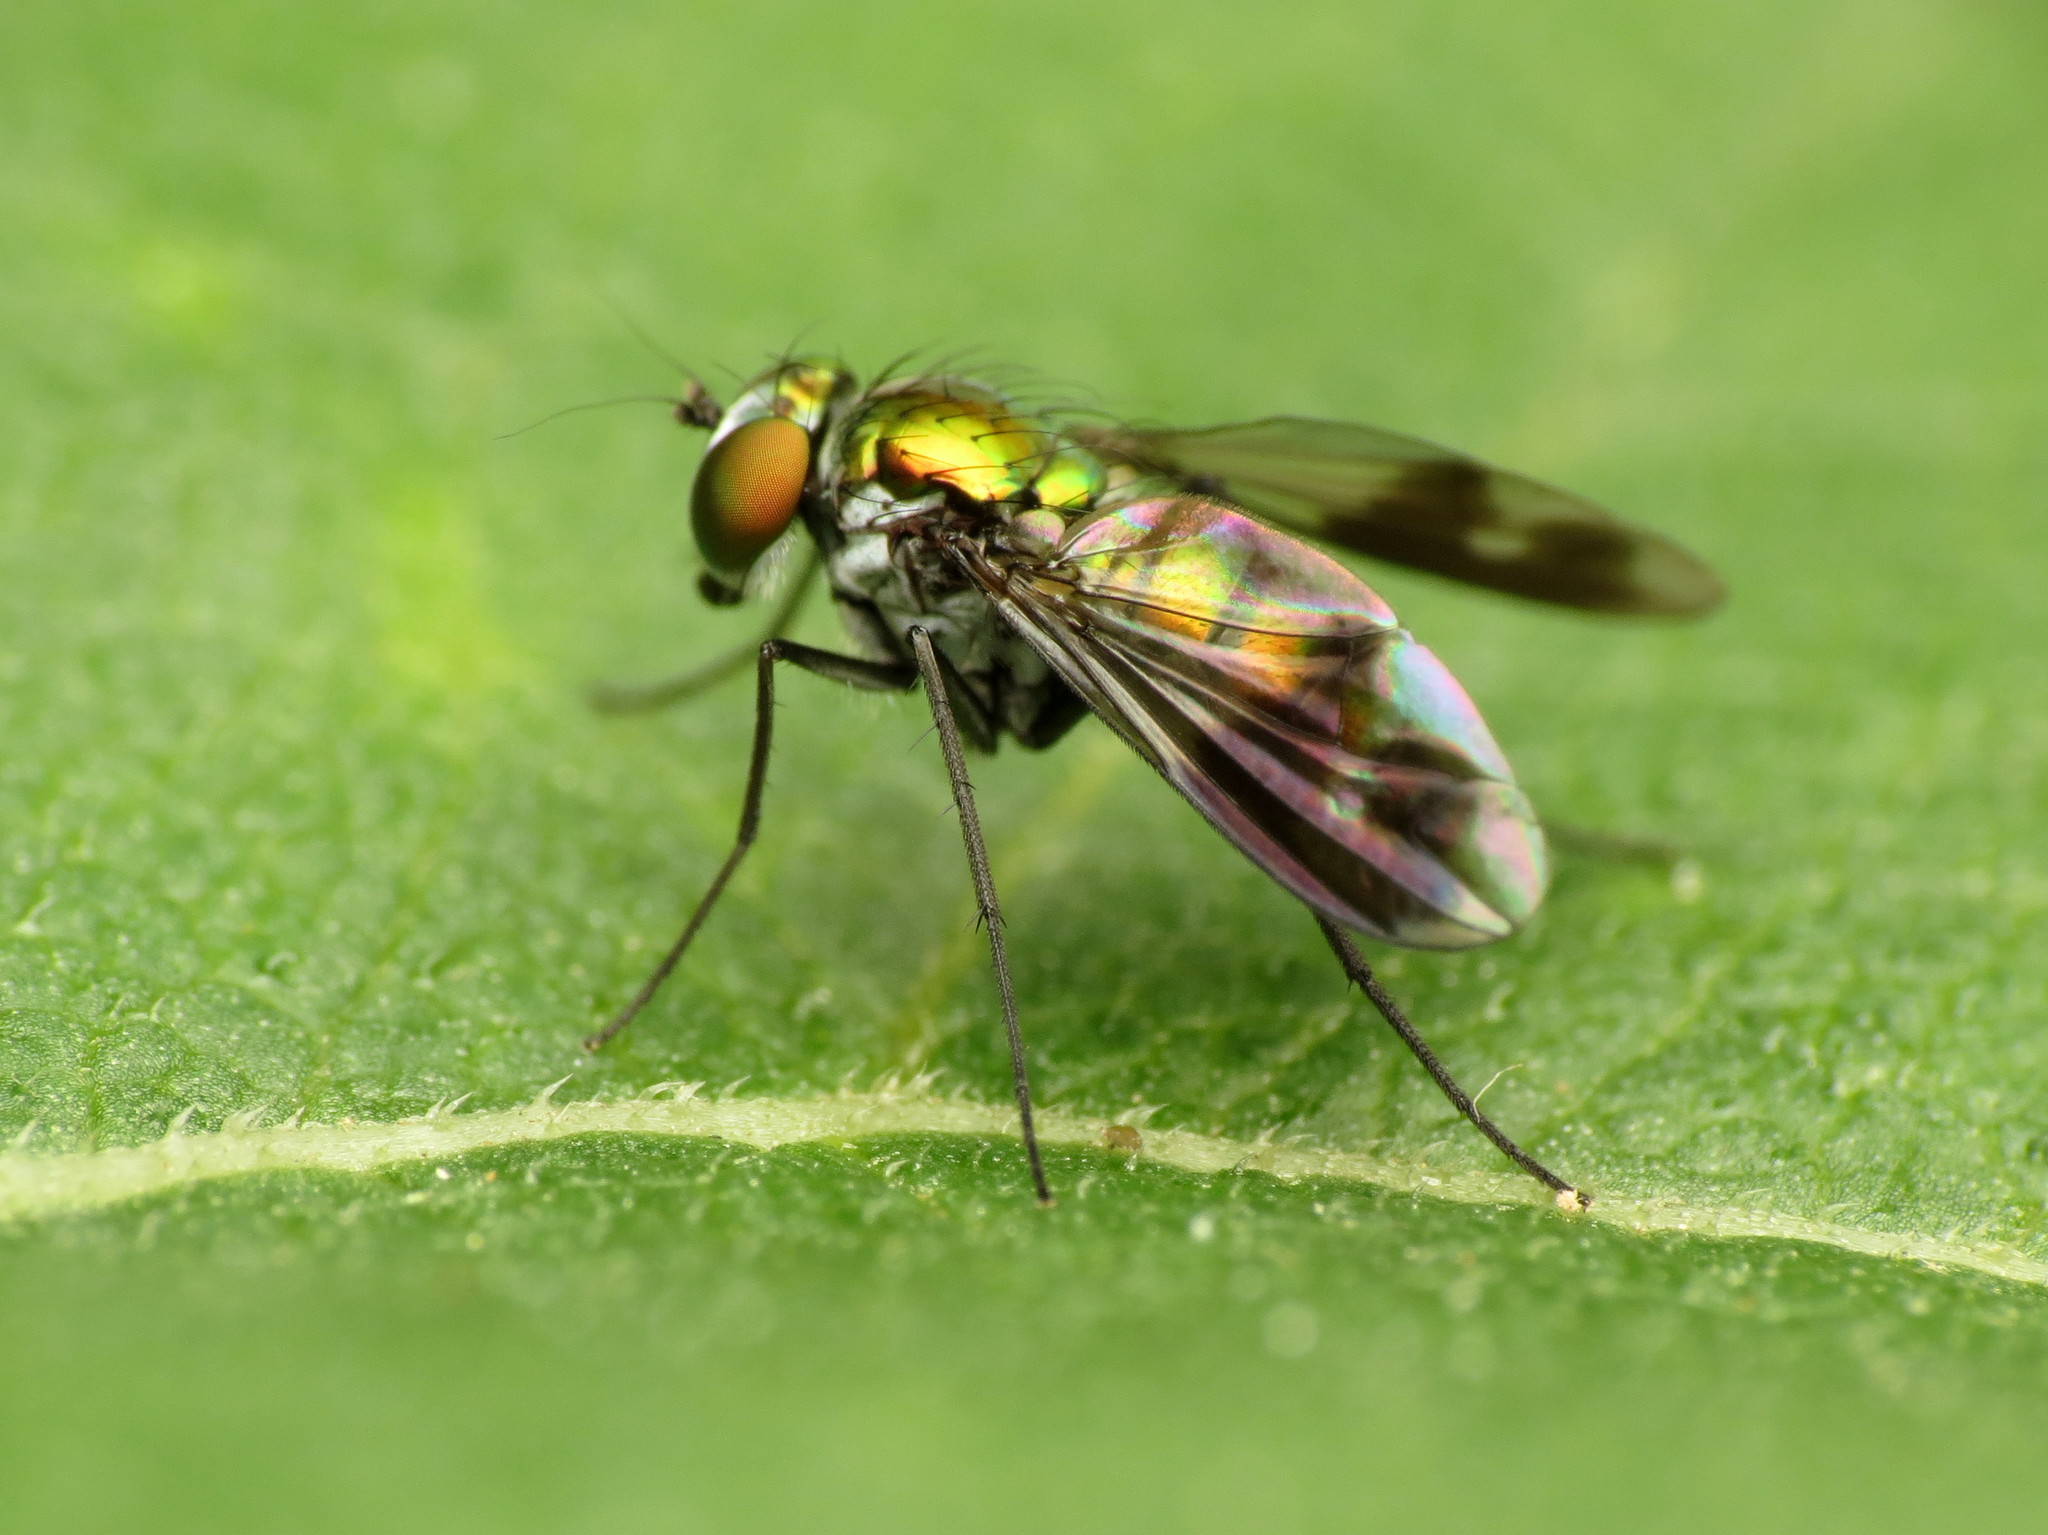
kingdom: Animalia
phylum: Arthropoda
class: Insecta
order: Diptera
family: Dolichopodidae
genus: Condylostylus
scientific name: Condylostylus patibulatus
